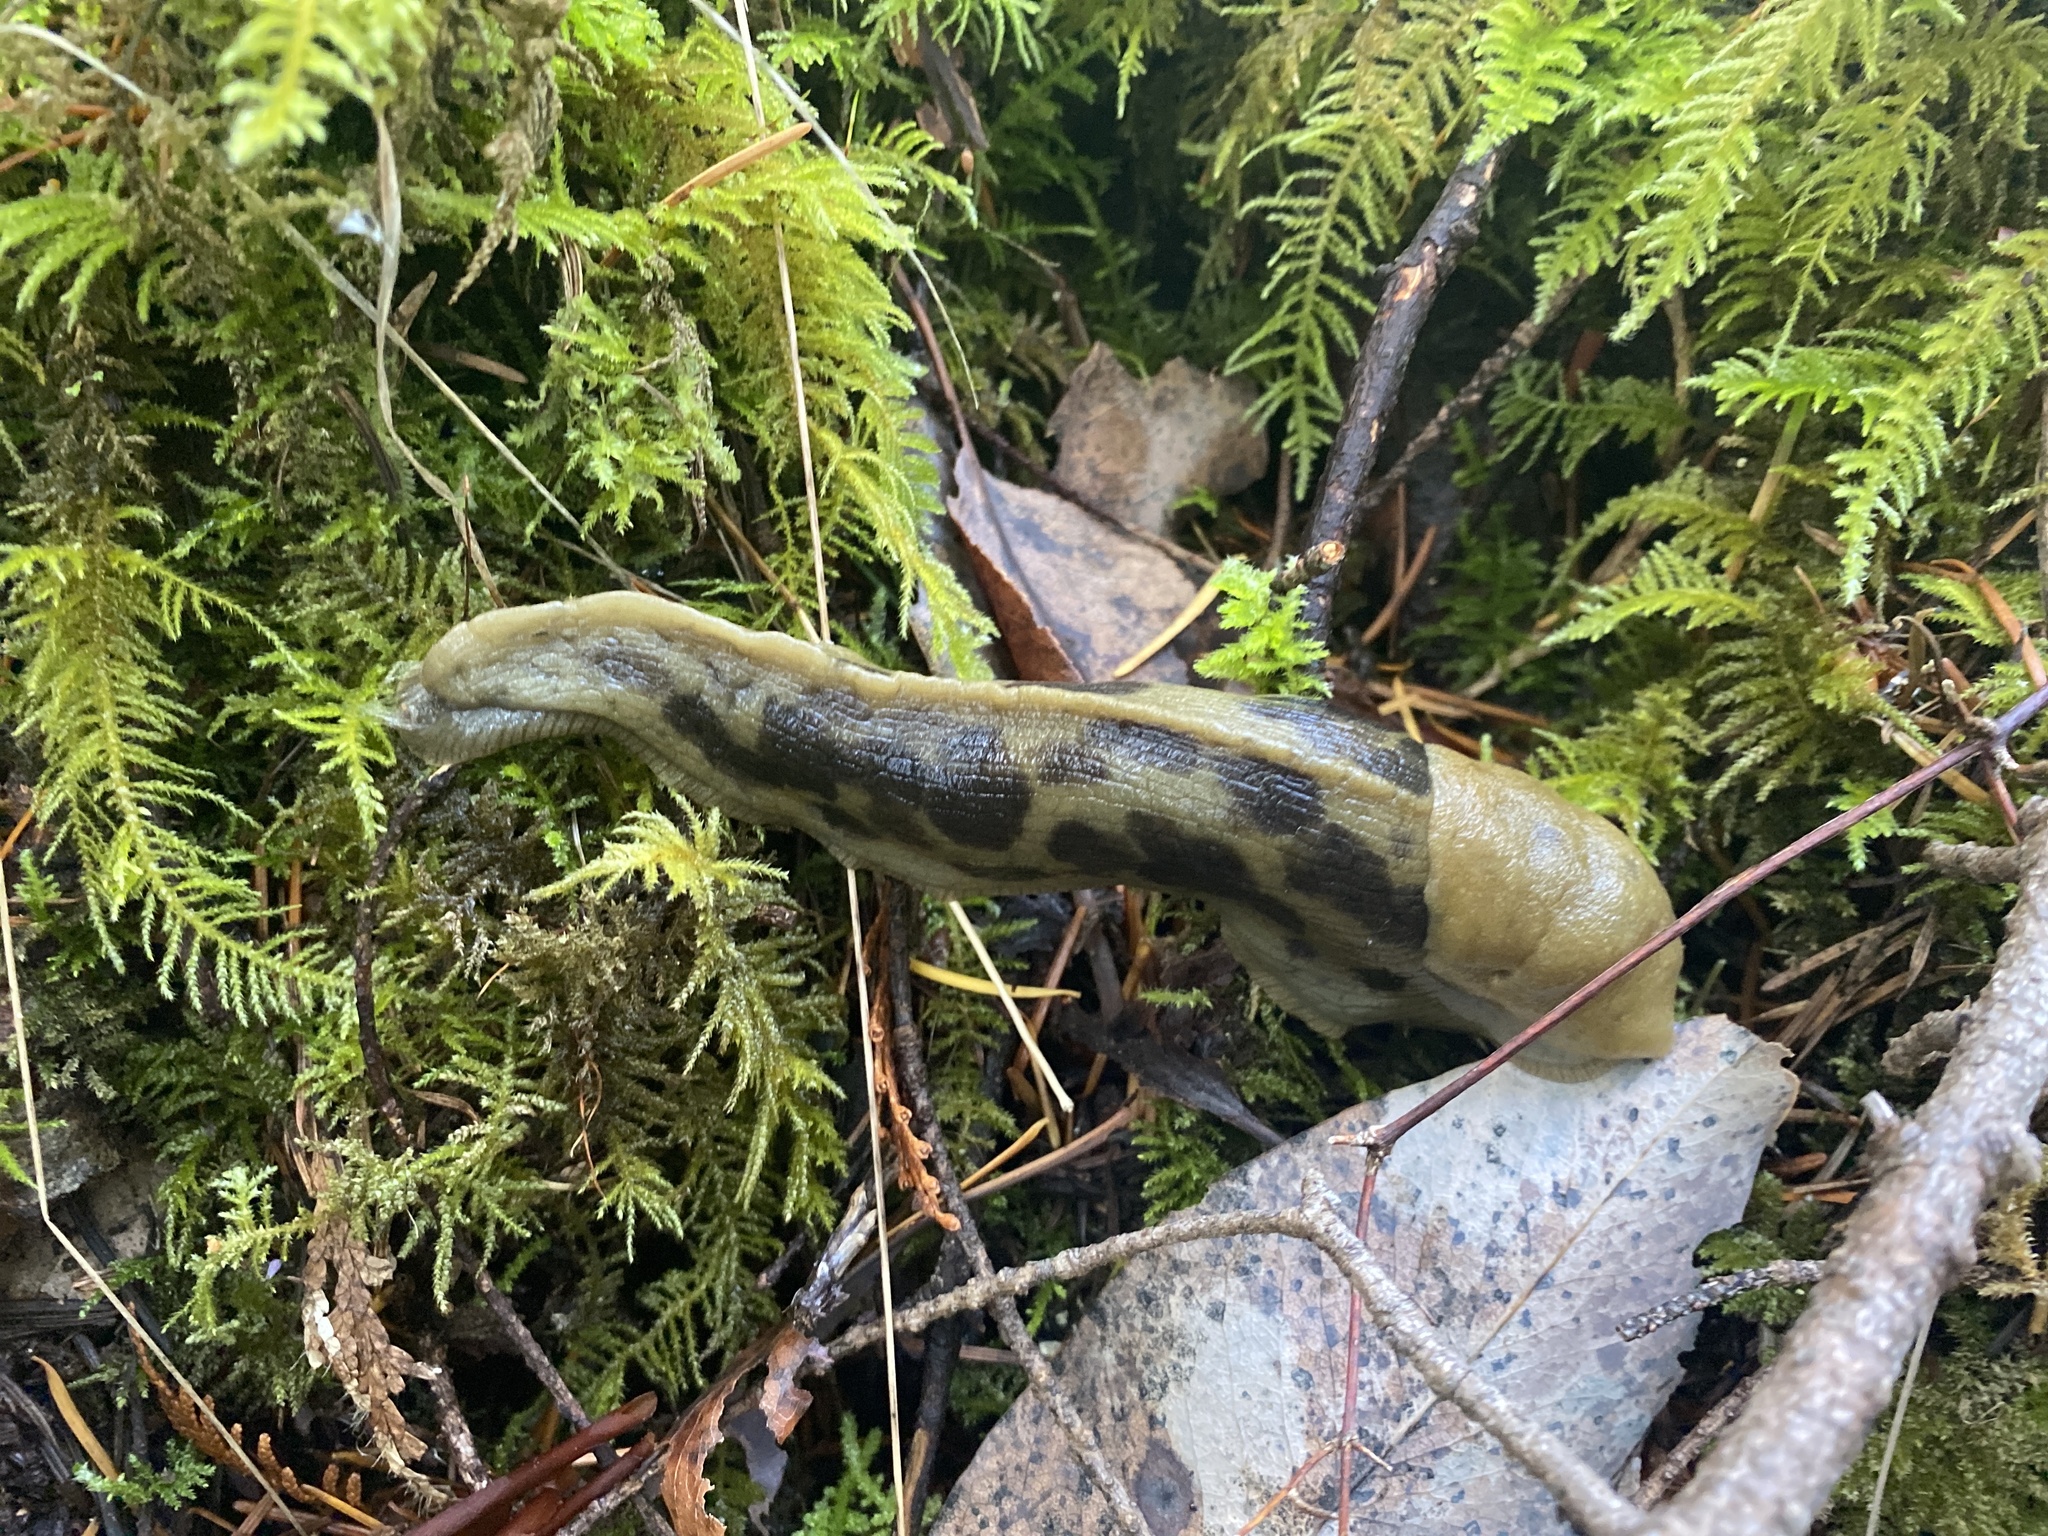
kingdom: Animalia
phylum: Mollusca
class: Gastropoda
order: Stylommatophora
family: Ariolimacidae
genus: Ariolimax
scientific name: Ariolimax columbianus
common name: Pacific banana slug
